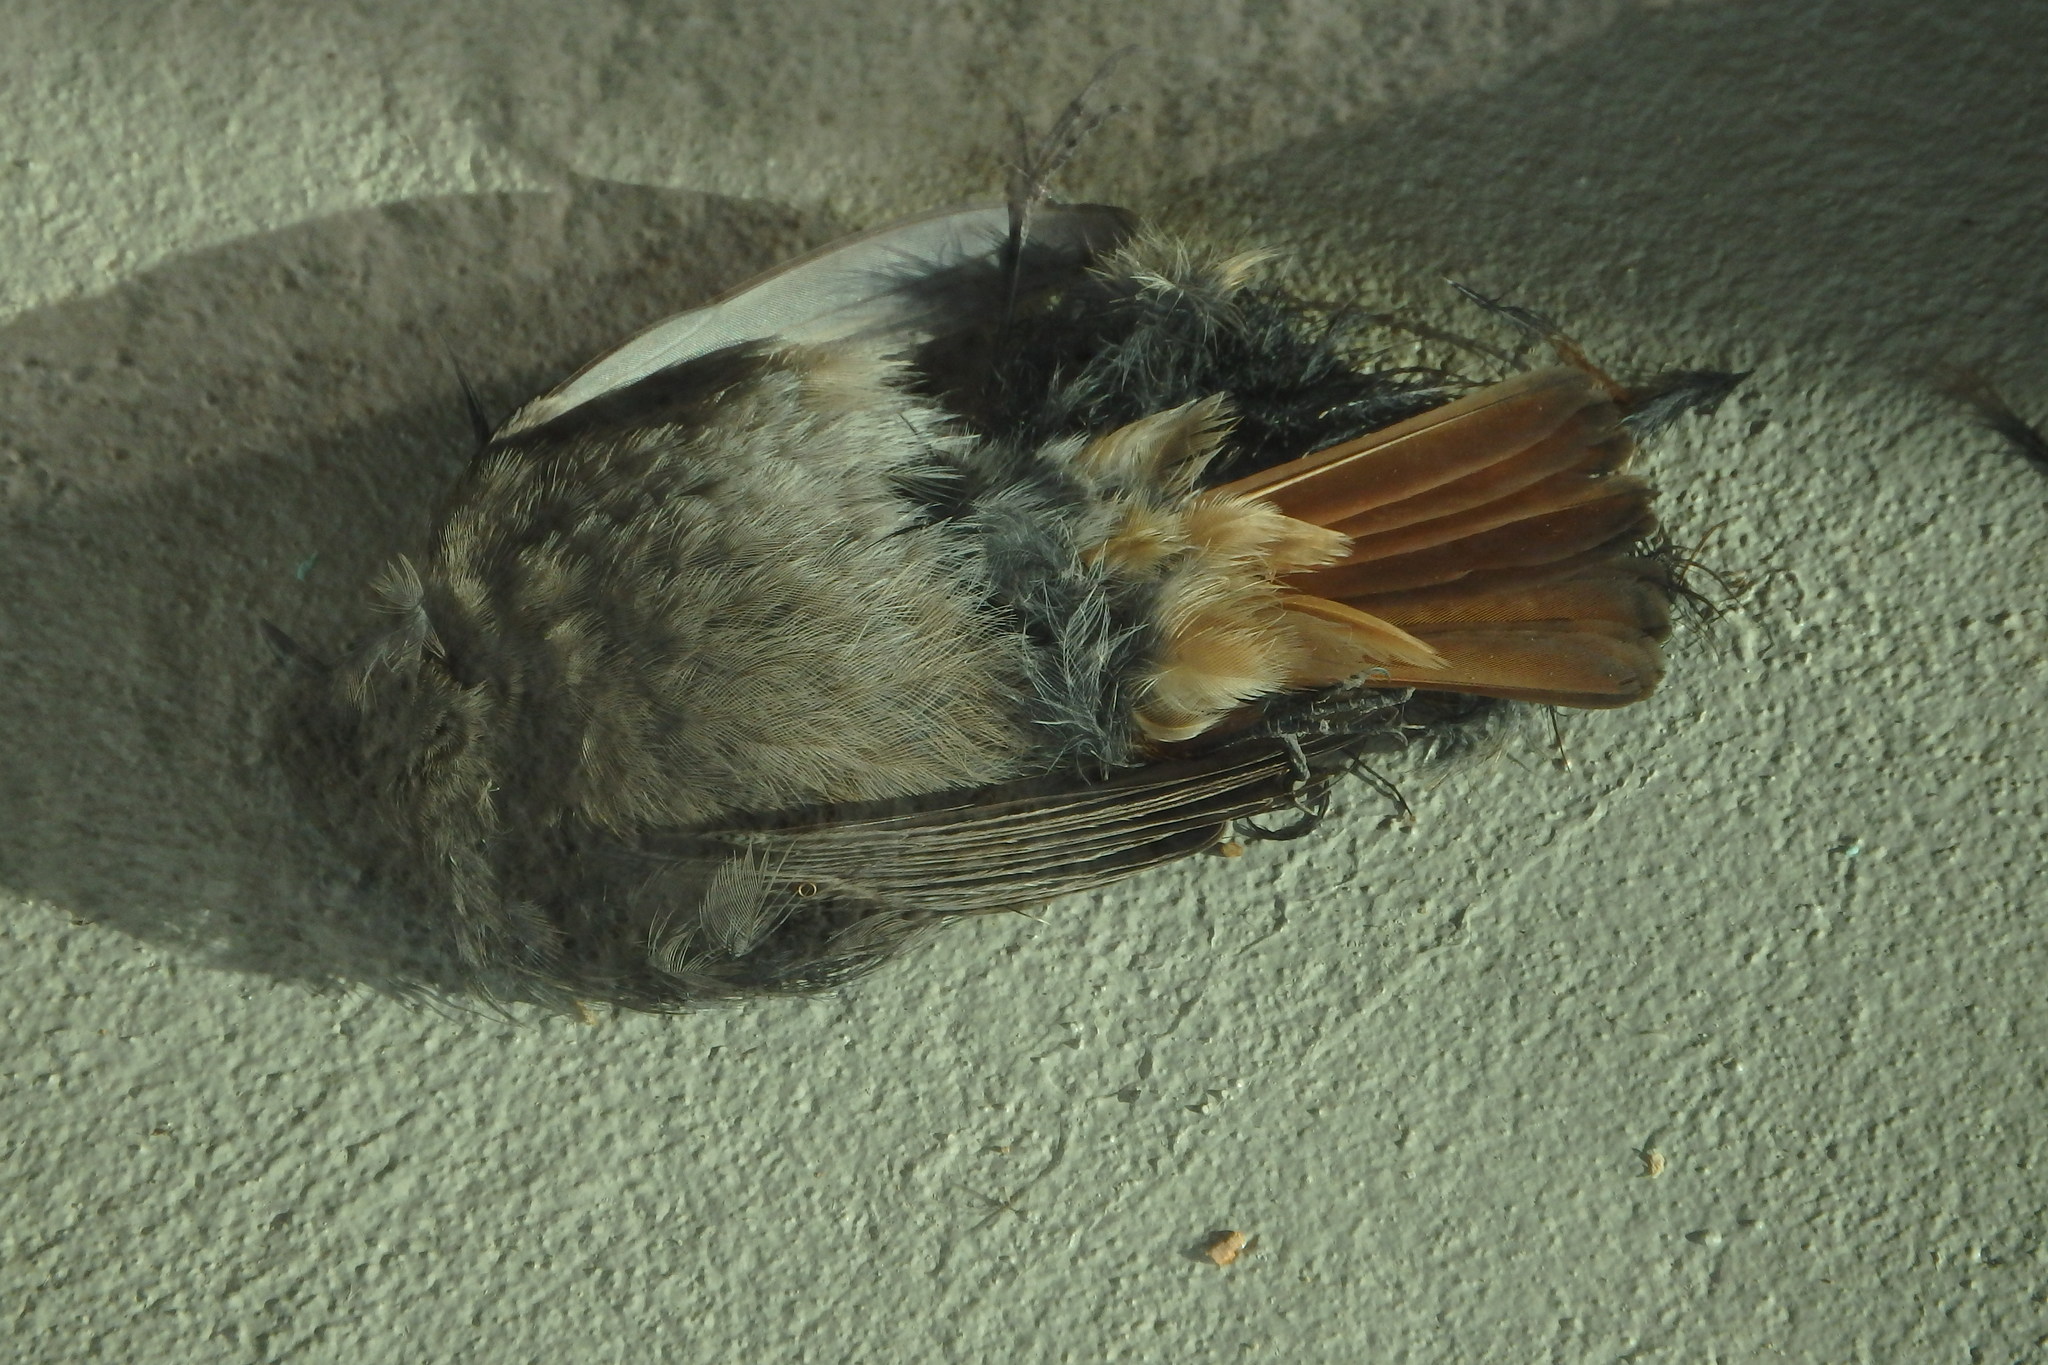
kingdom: Animalia
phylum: Chordata
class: Aves
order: Passeriformes
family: Muscicapidae
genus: Phoenicurus
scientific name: Phoenicurus ochruros
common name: Black redstart
